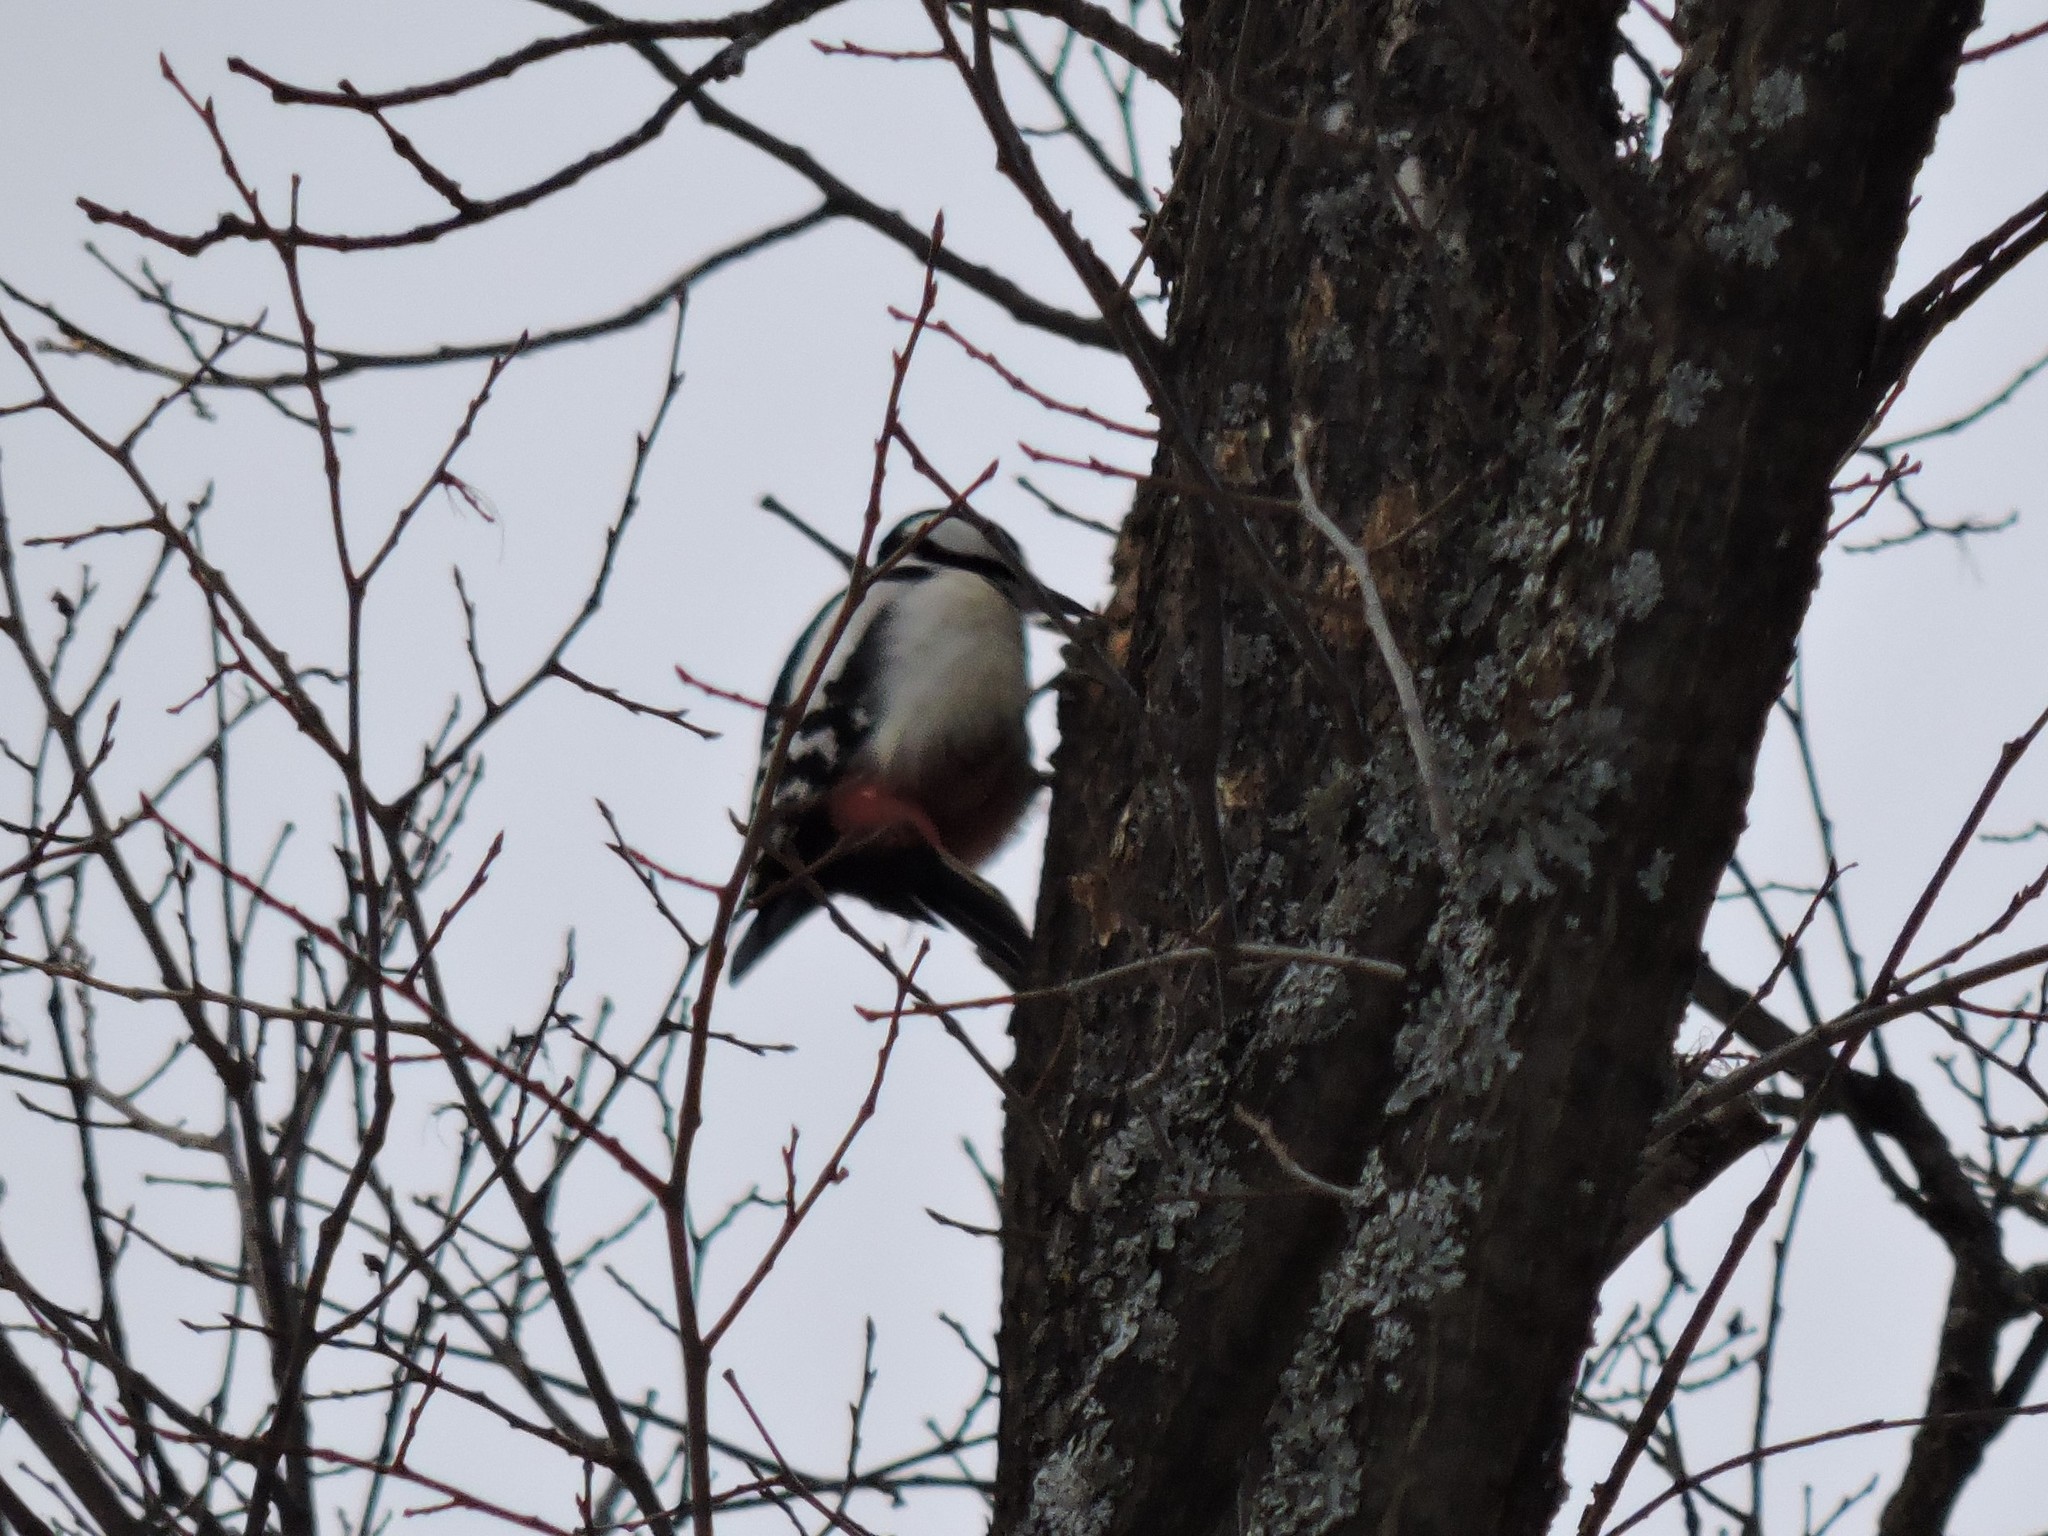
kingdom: Animalia
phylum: Chordata
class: Aves
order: Piciformes
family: Picidae
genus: Dendrocopos
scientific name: Dendrocopos major
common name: Great spotted woodpecker
